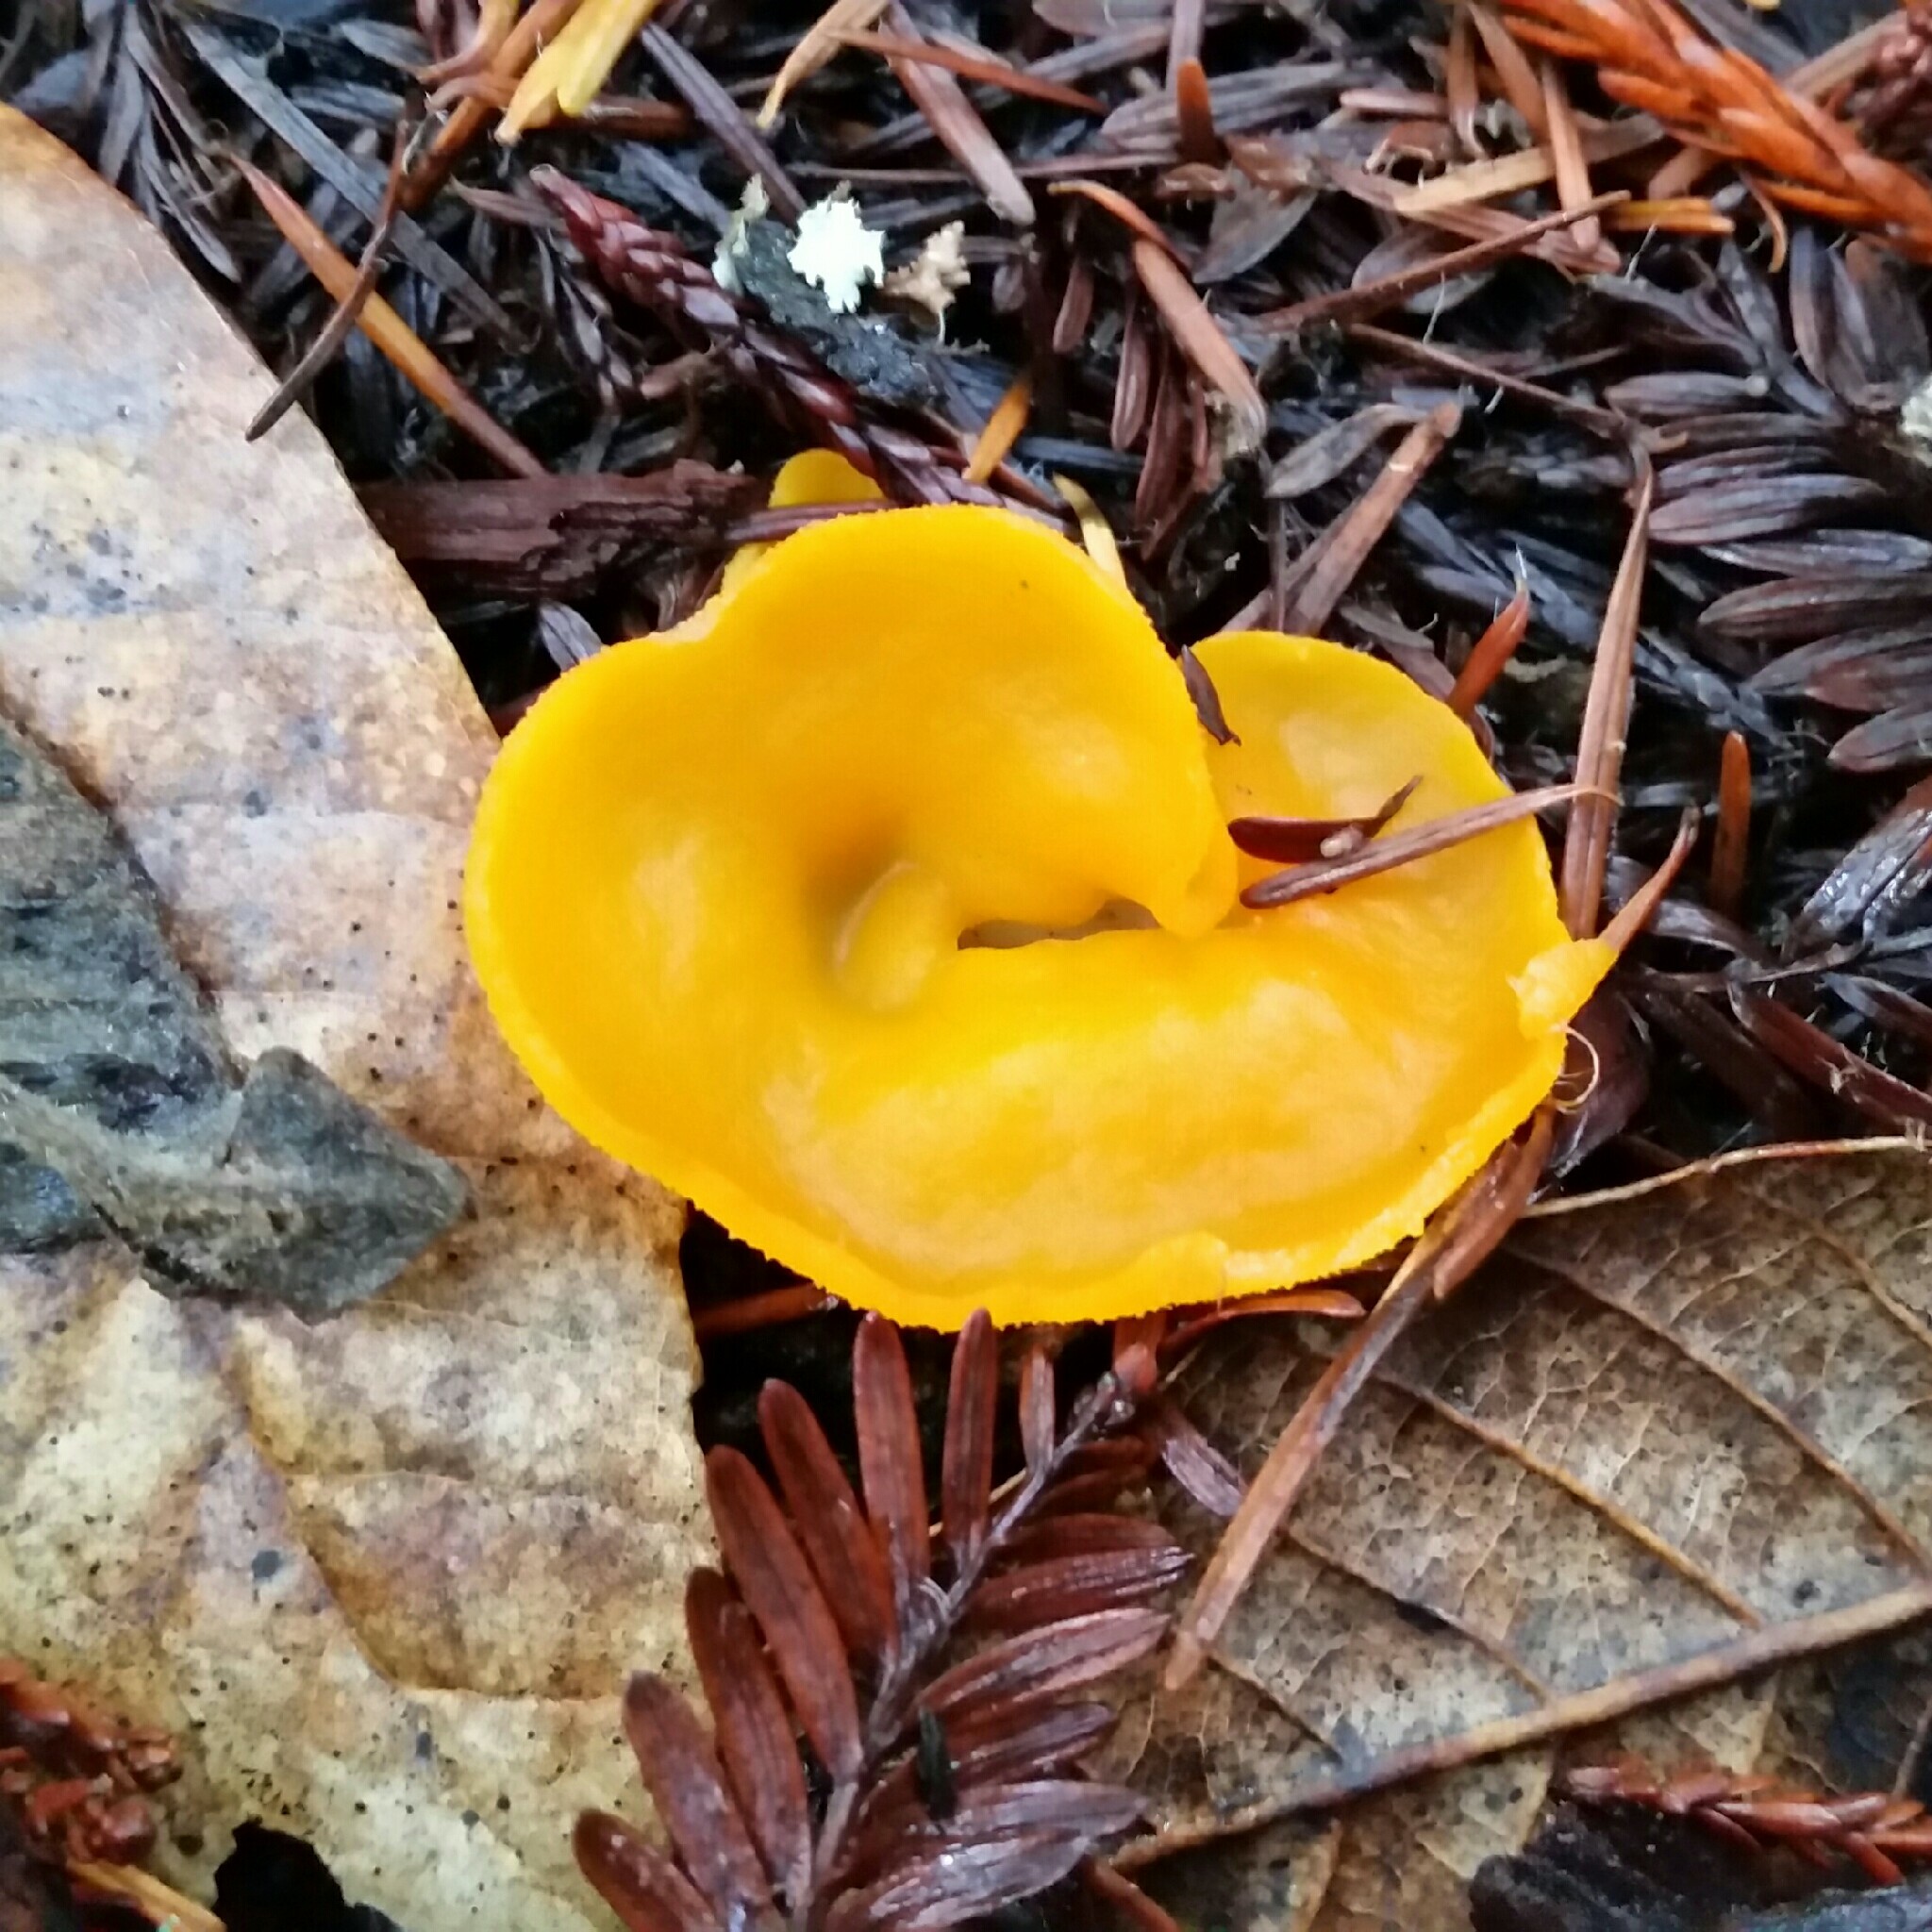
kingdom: Fungi
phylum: Ascomycota
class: Pezizomycetes
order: Pezizales
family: Pyronemataceae
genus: Aleuria
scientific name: Aleuria aurantia
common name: Orange peel fungus
